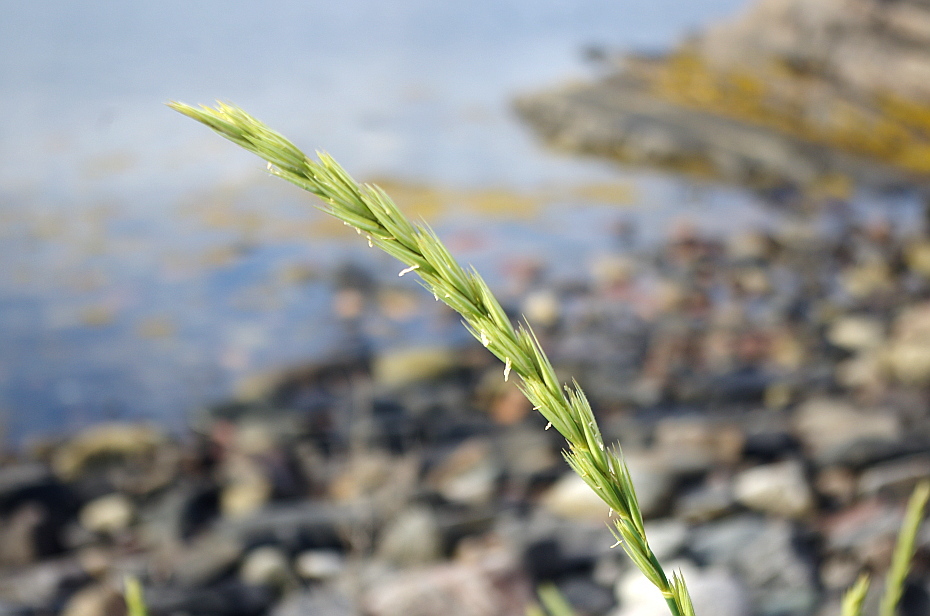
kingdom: Plantae
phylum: Tracheophyta
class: Liliopsida
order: Poales
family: Poaceae
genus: Leymus
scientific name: Leymus arenarius
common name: Lyme-grass
